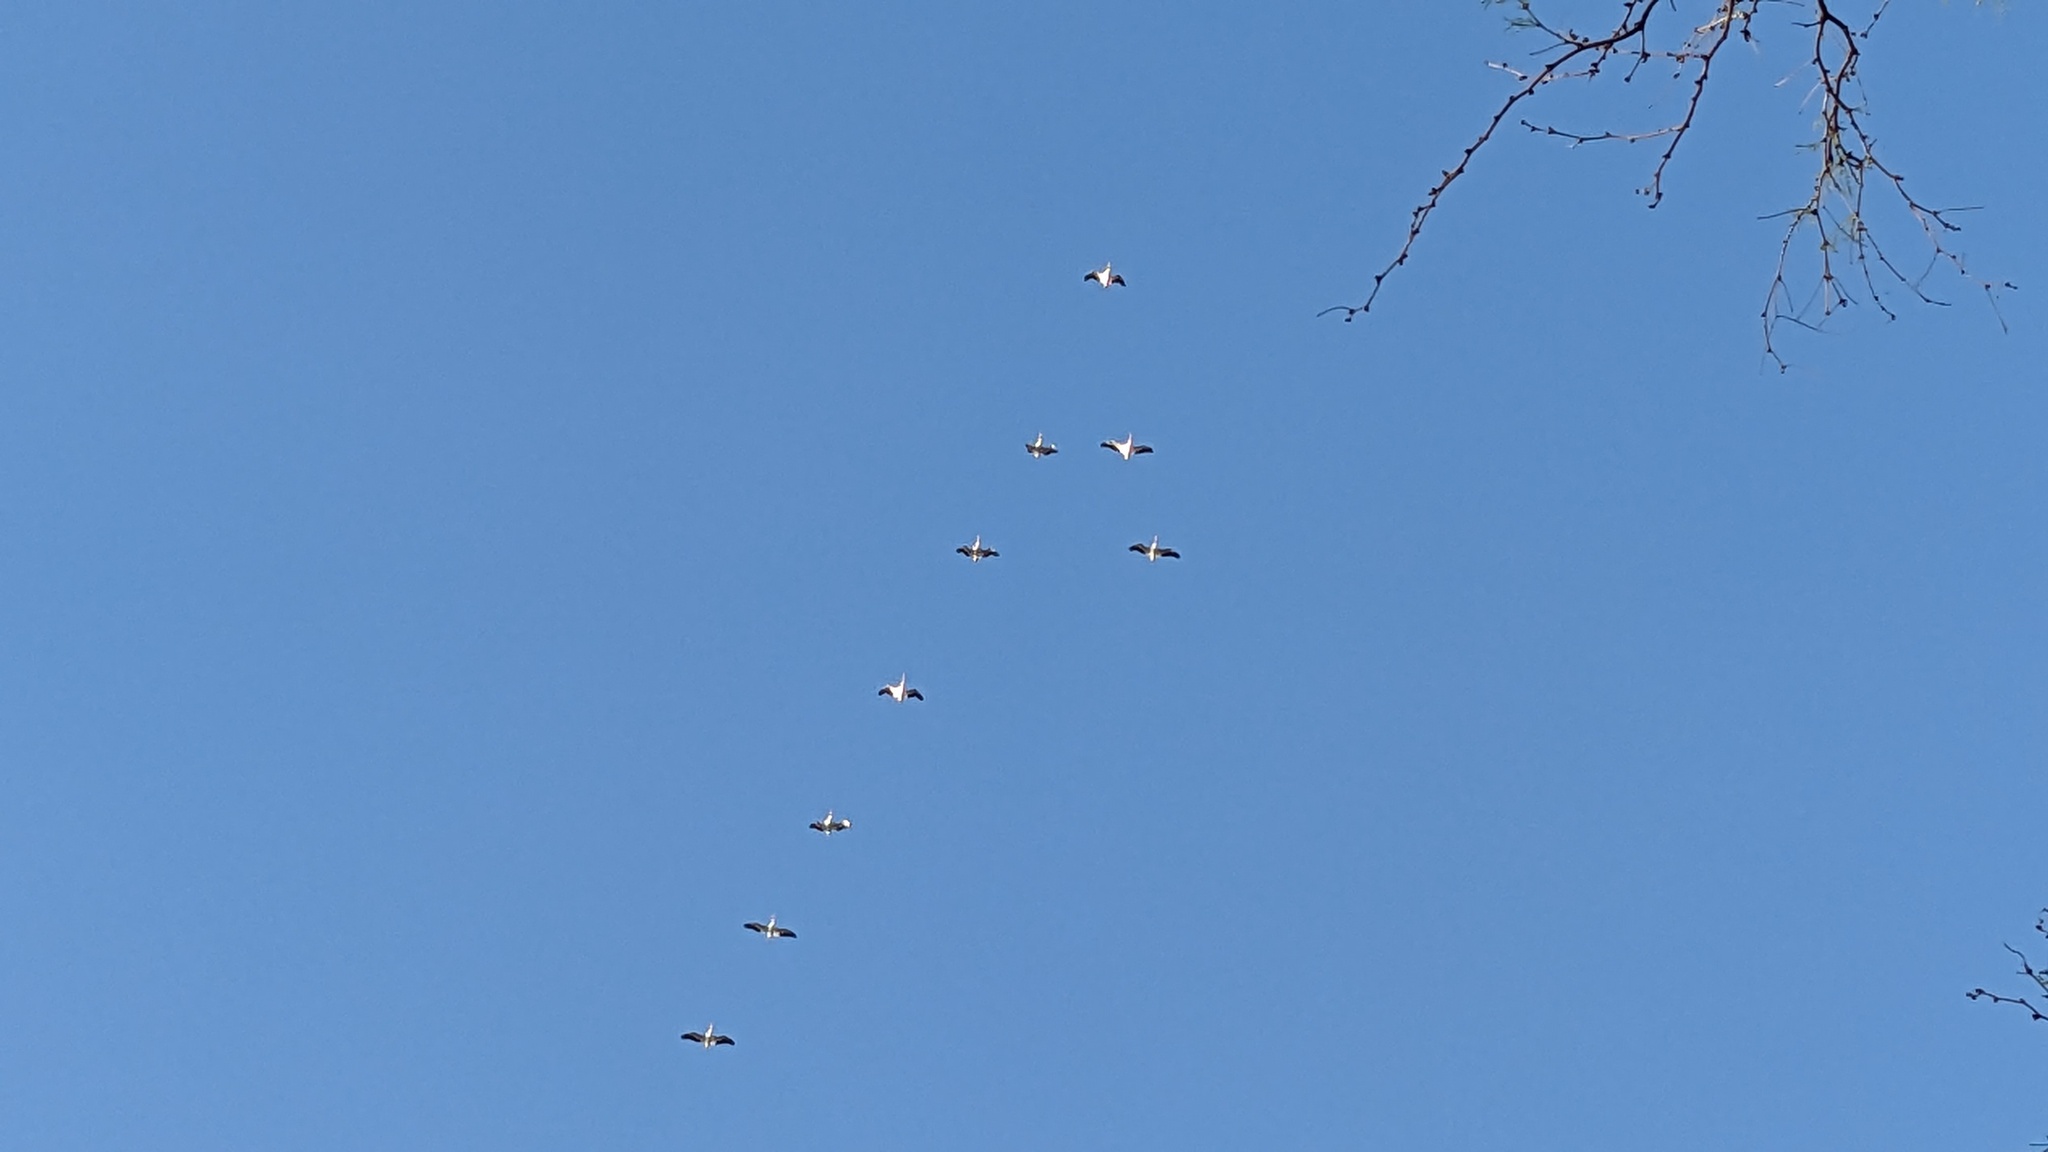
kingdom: Animalia
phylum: Chordata
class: Aves
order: Pelecaniformes
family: Pelecanidae
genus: Pelecanus
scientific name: Pelecanus erythrorhynchos
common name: American white pelican
